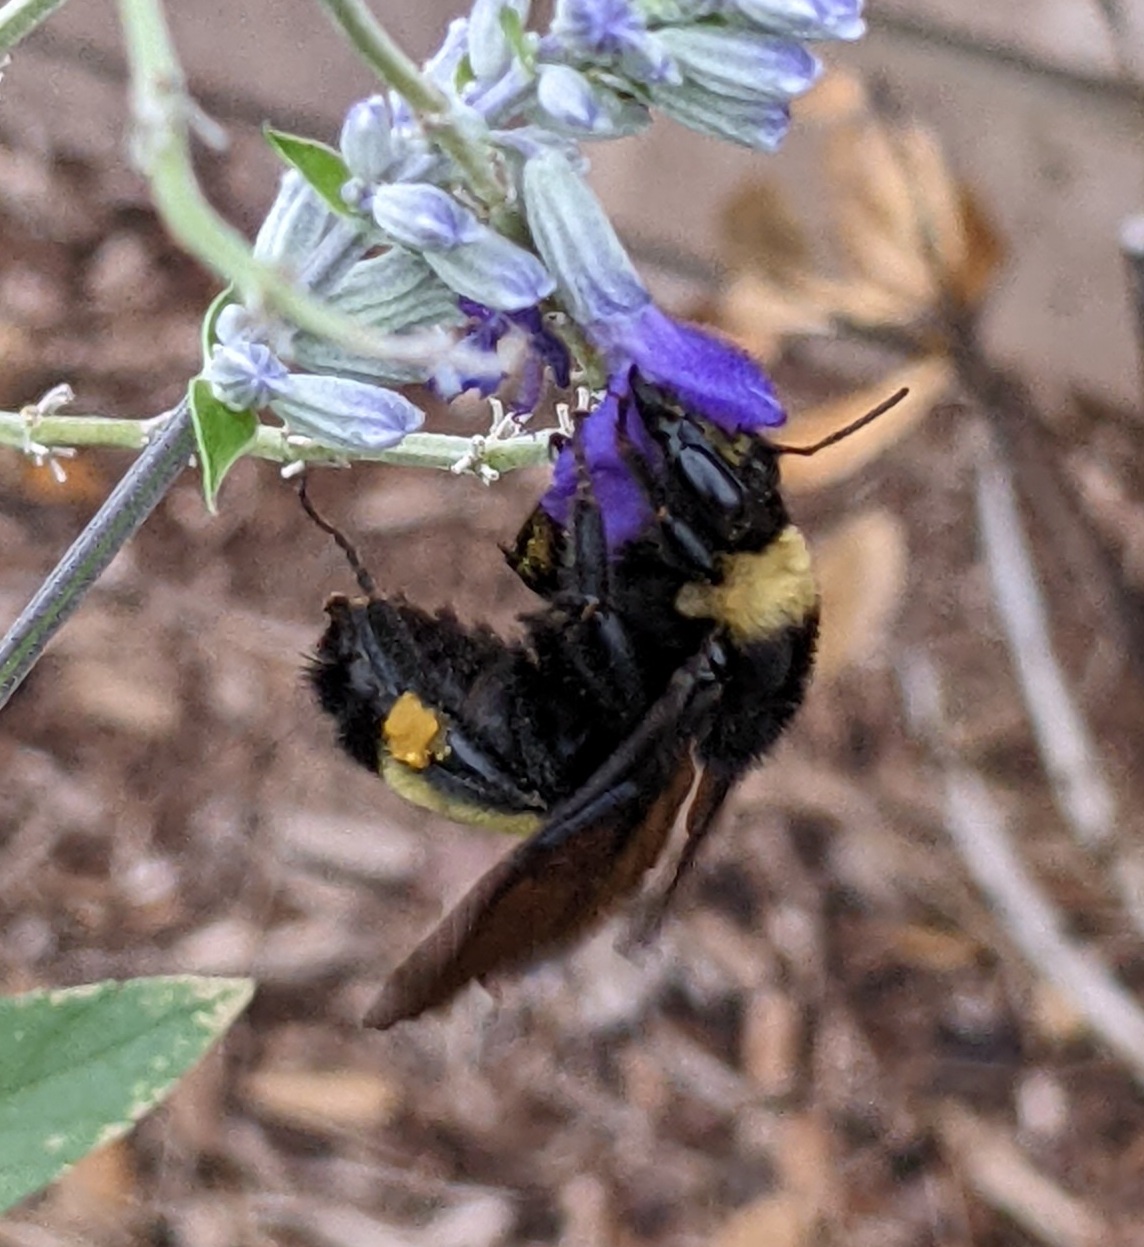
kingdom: Animalia
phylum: Arthropoda
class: Insecta
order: Hymenoptera
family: Apidae
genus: Bombus
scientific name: Bombus pensylvanicus
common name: Bumble bee
